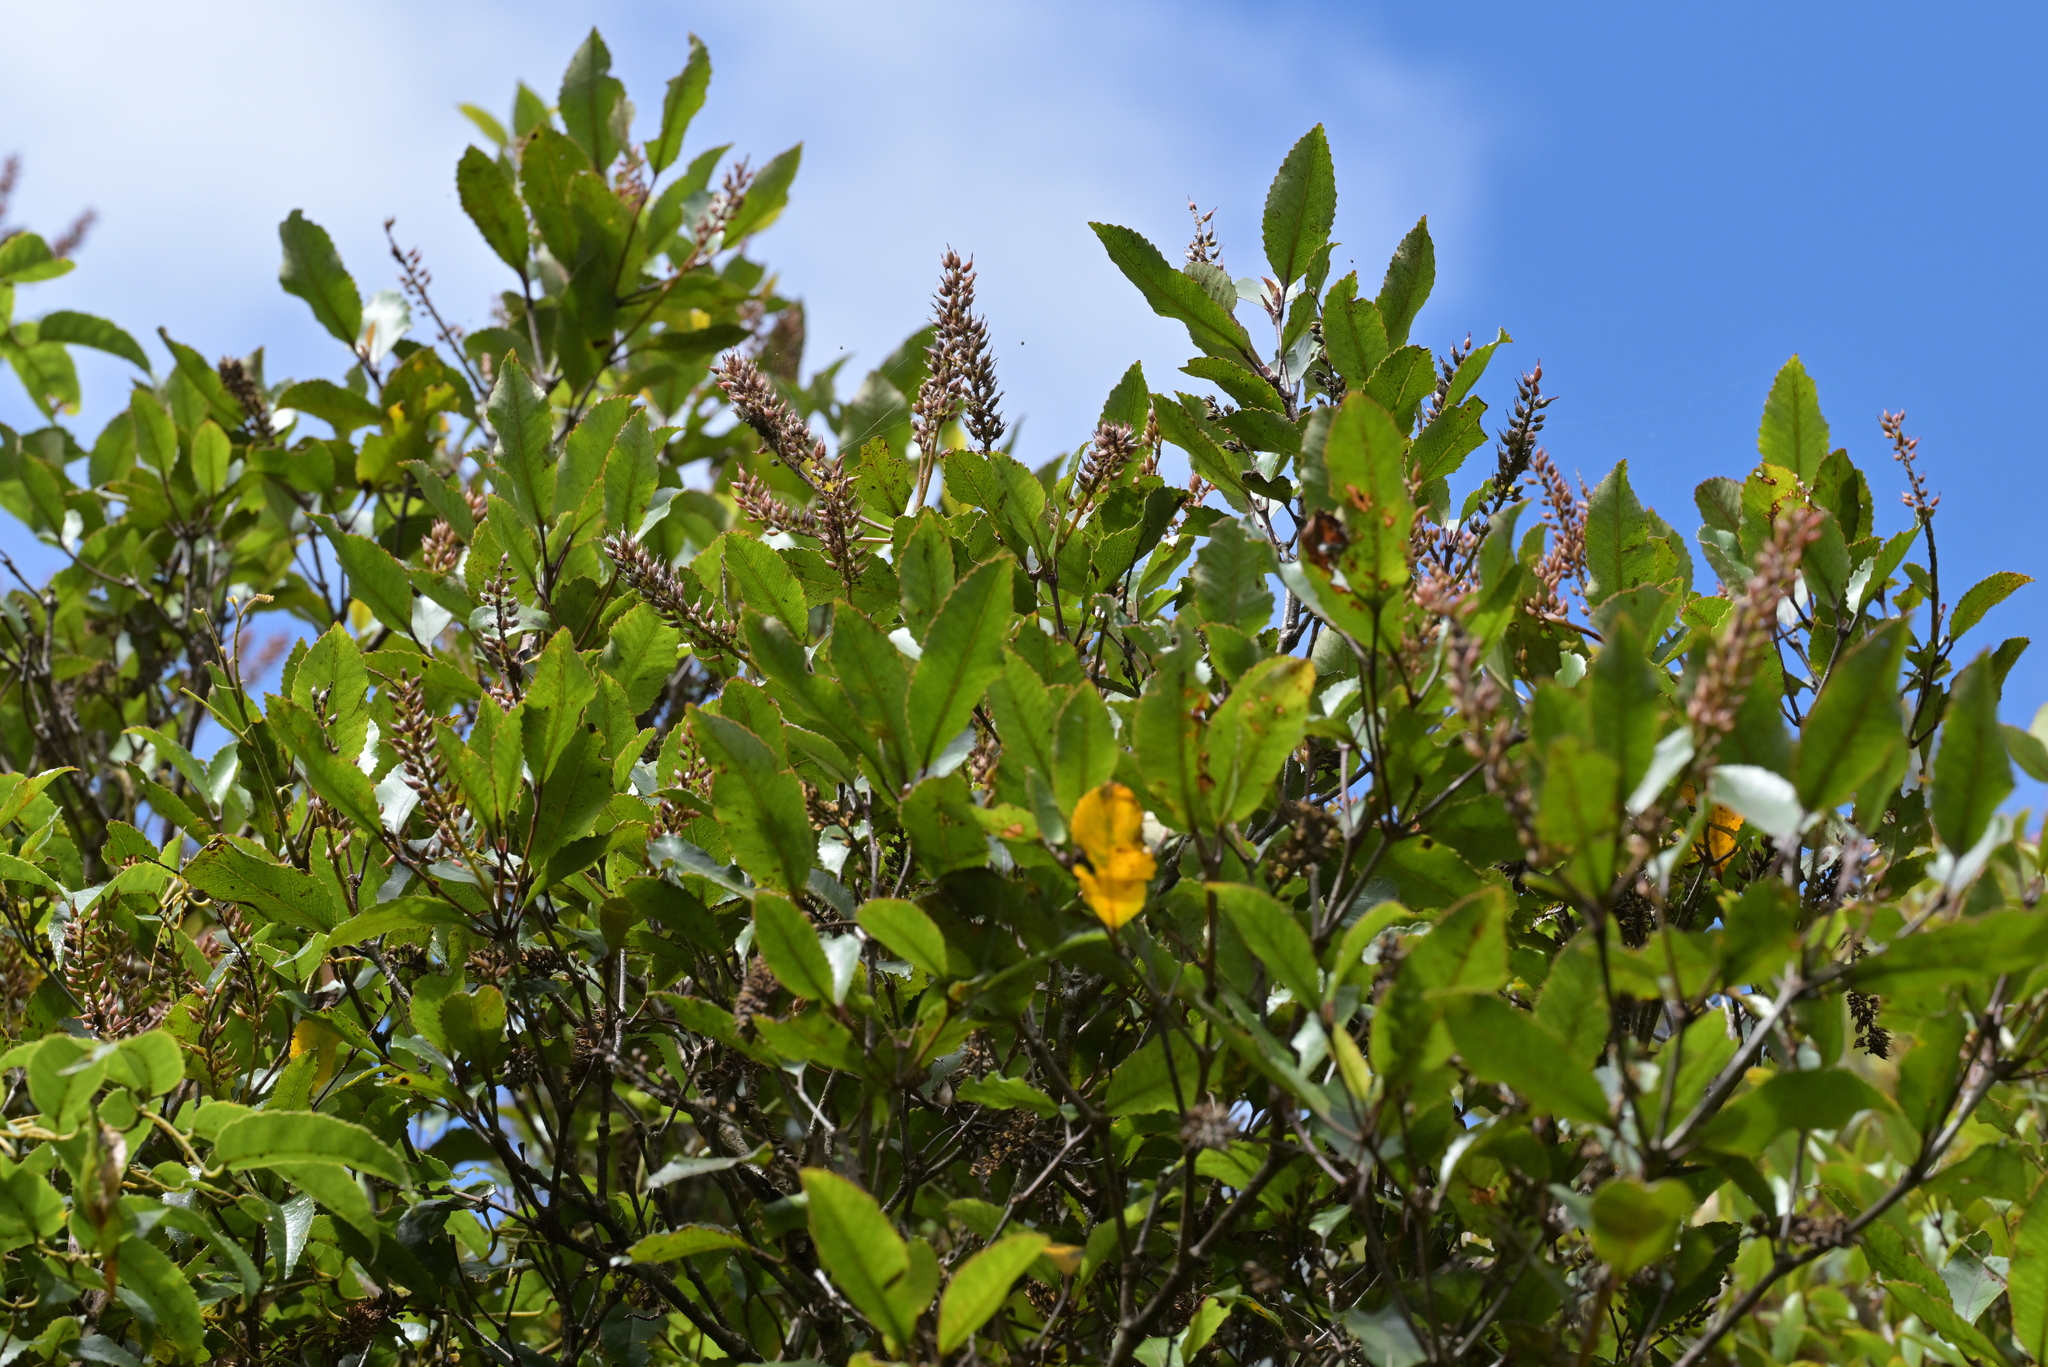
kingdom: Plantae
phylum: Tracheophyta
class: Magnoliopsida
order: Oxalidales
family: Cunoniaceae
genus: Pterophylla
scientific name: Pterophylla racemosa
